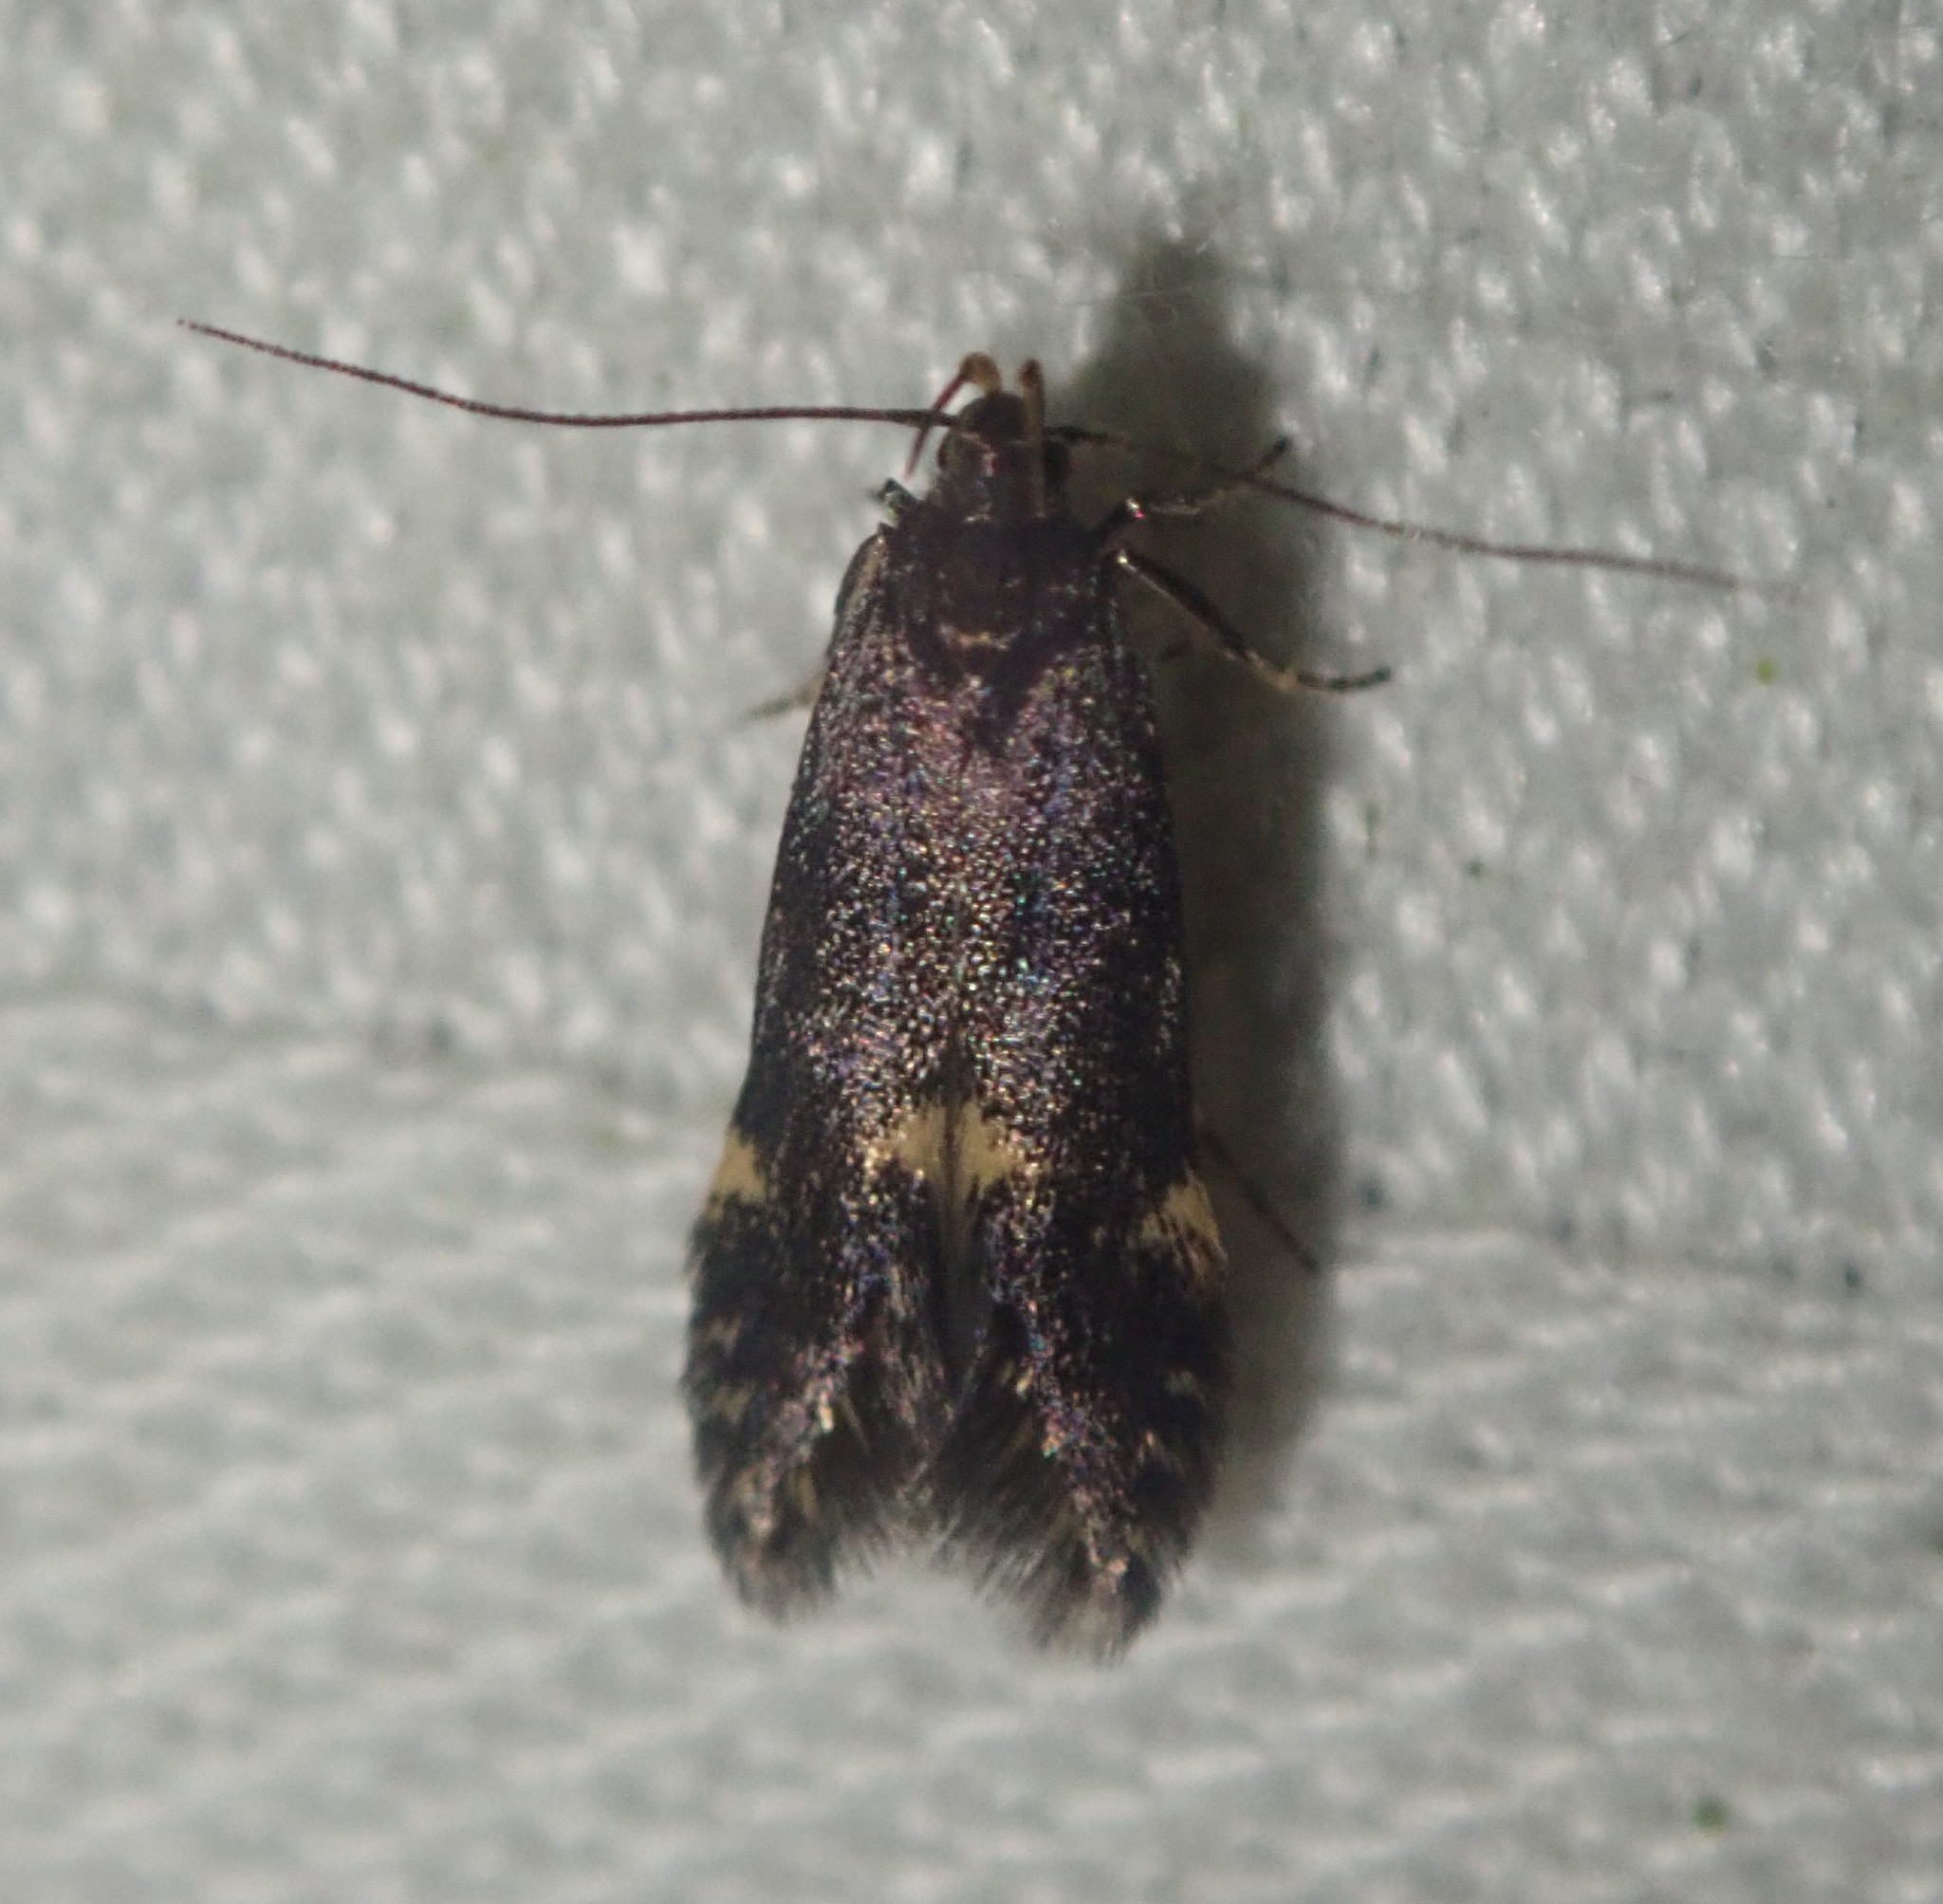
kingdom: Animalia
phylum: Arthropoda
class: Insecta
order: Lepidoptera
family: Gelechiidae
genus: Oxypteryx
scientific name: Oxypteryx atrella
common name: Two-spotted neb
